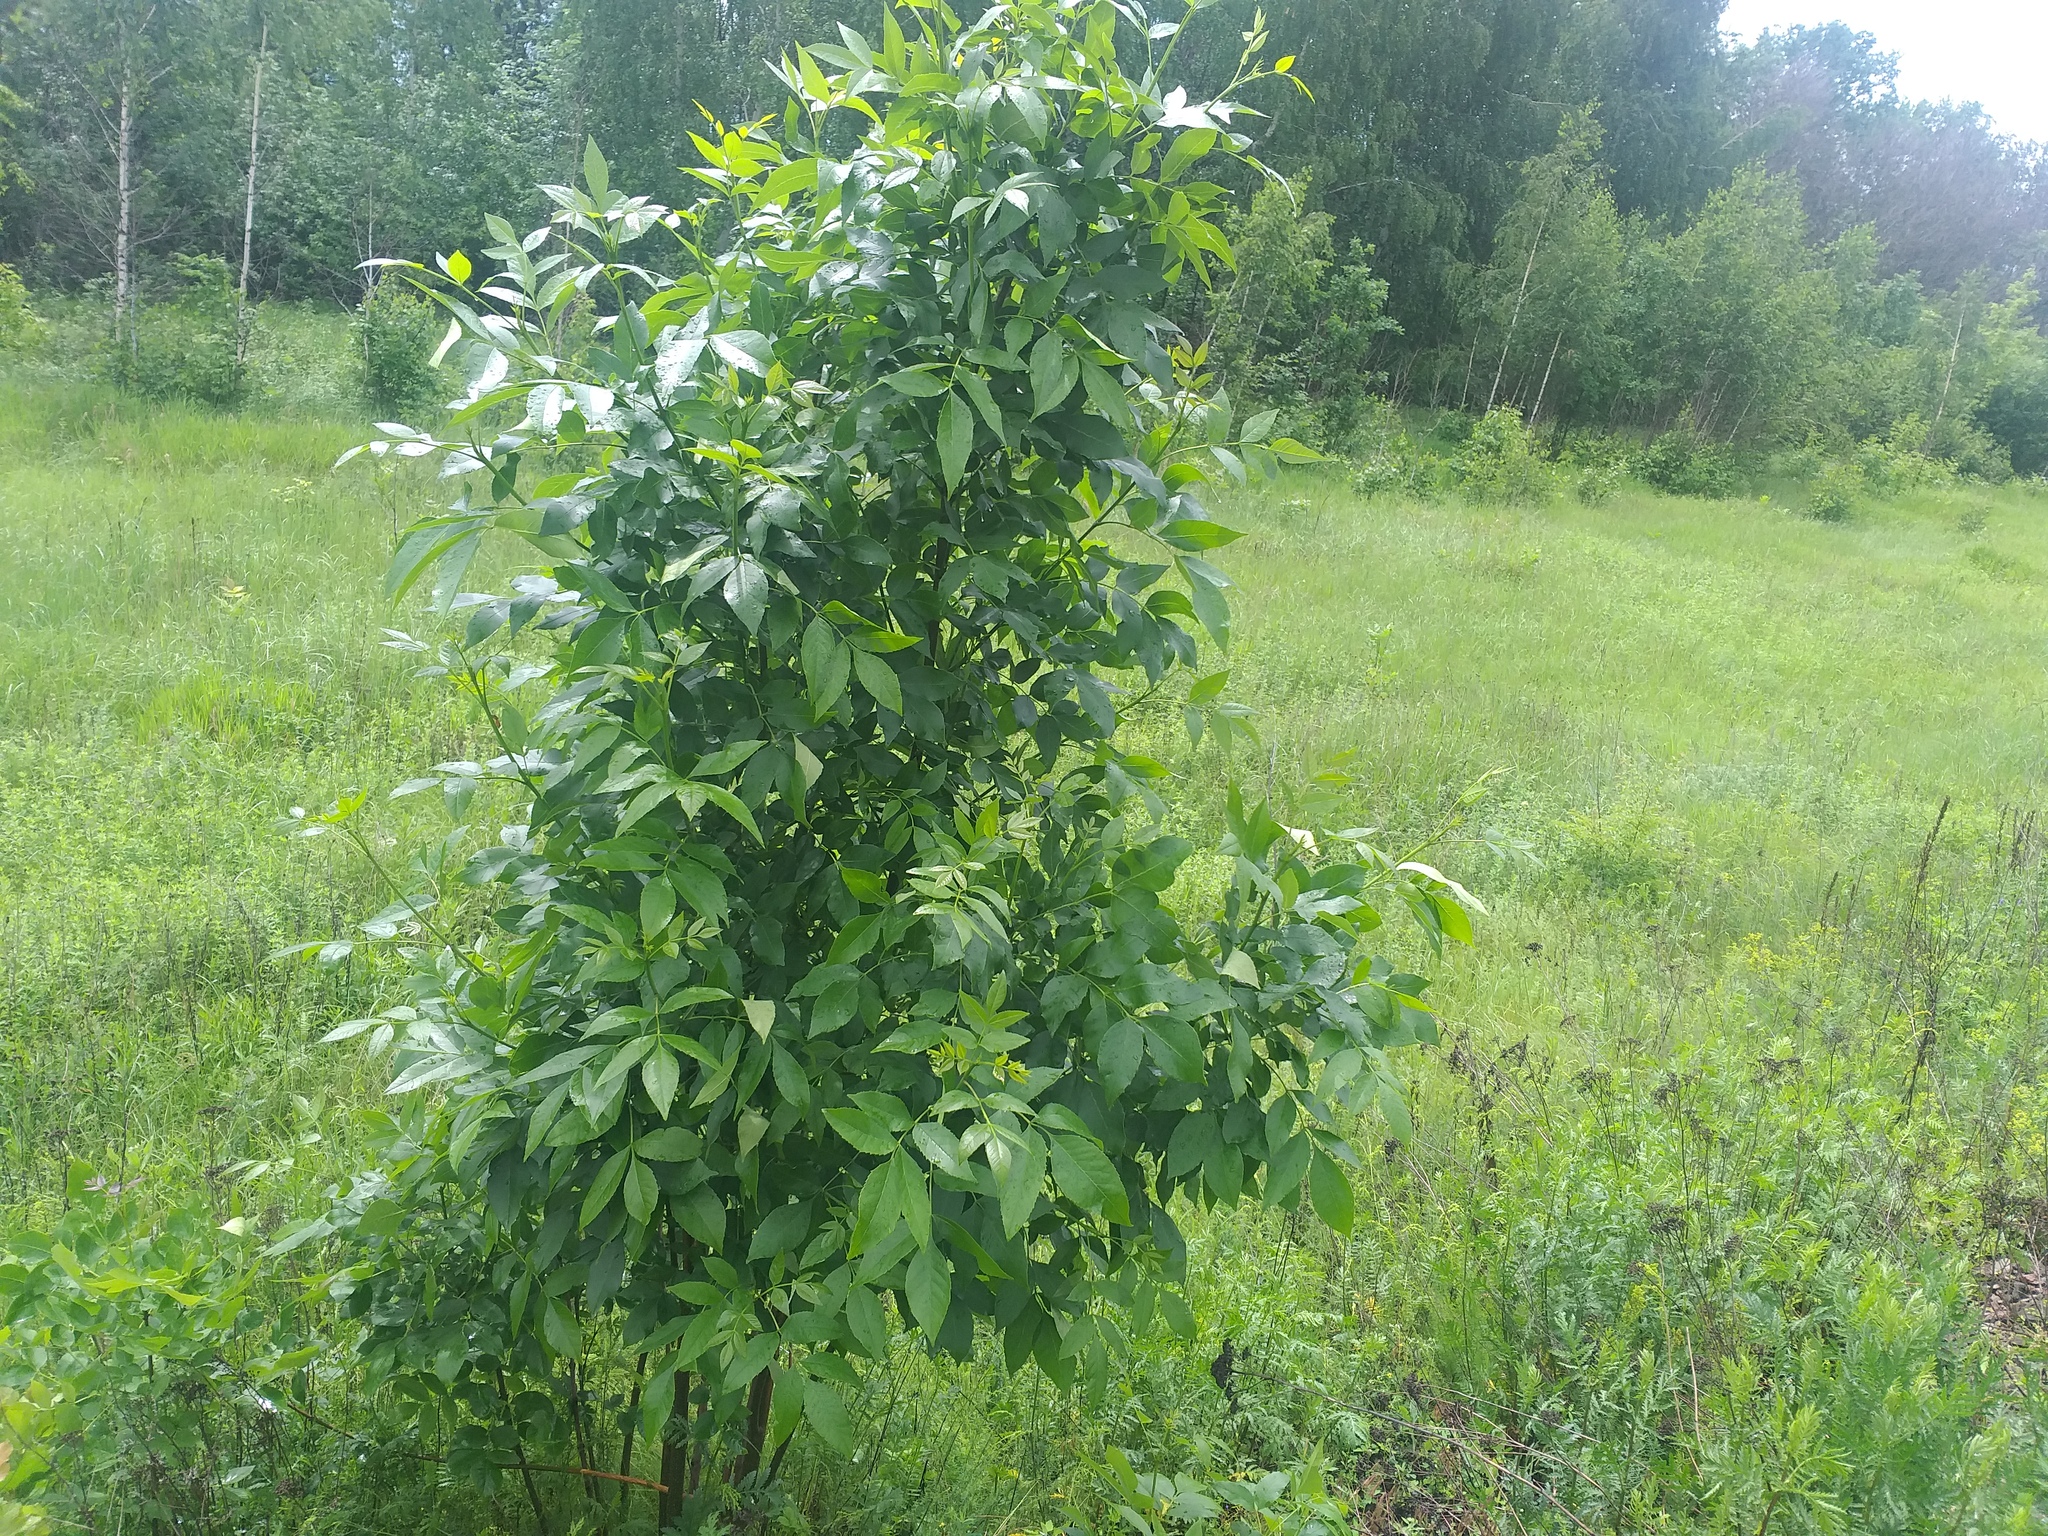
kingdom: Plantae
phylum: Tracheophyta
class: Magnoliopsida
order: Lamiales
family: Oleaceae
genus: Fraxinus
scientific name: Fraxinus pennsylvanica
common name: Green ash
